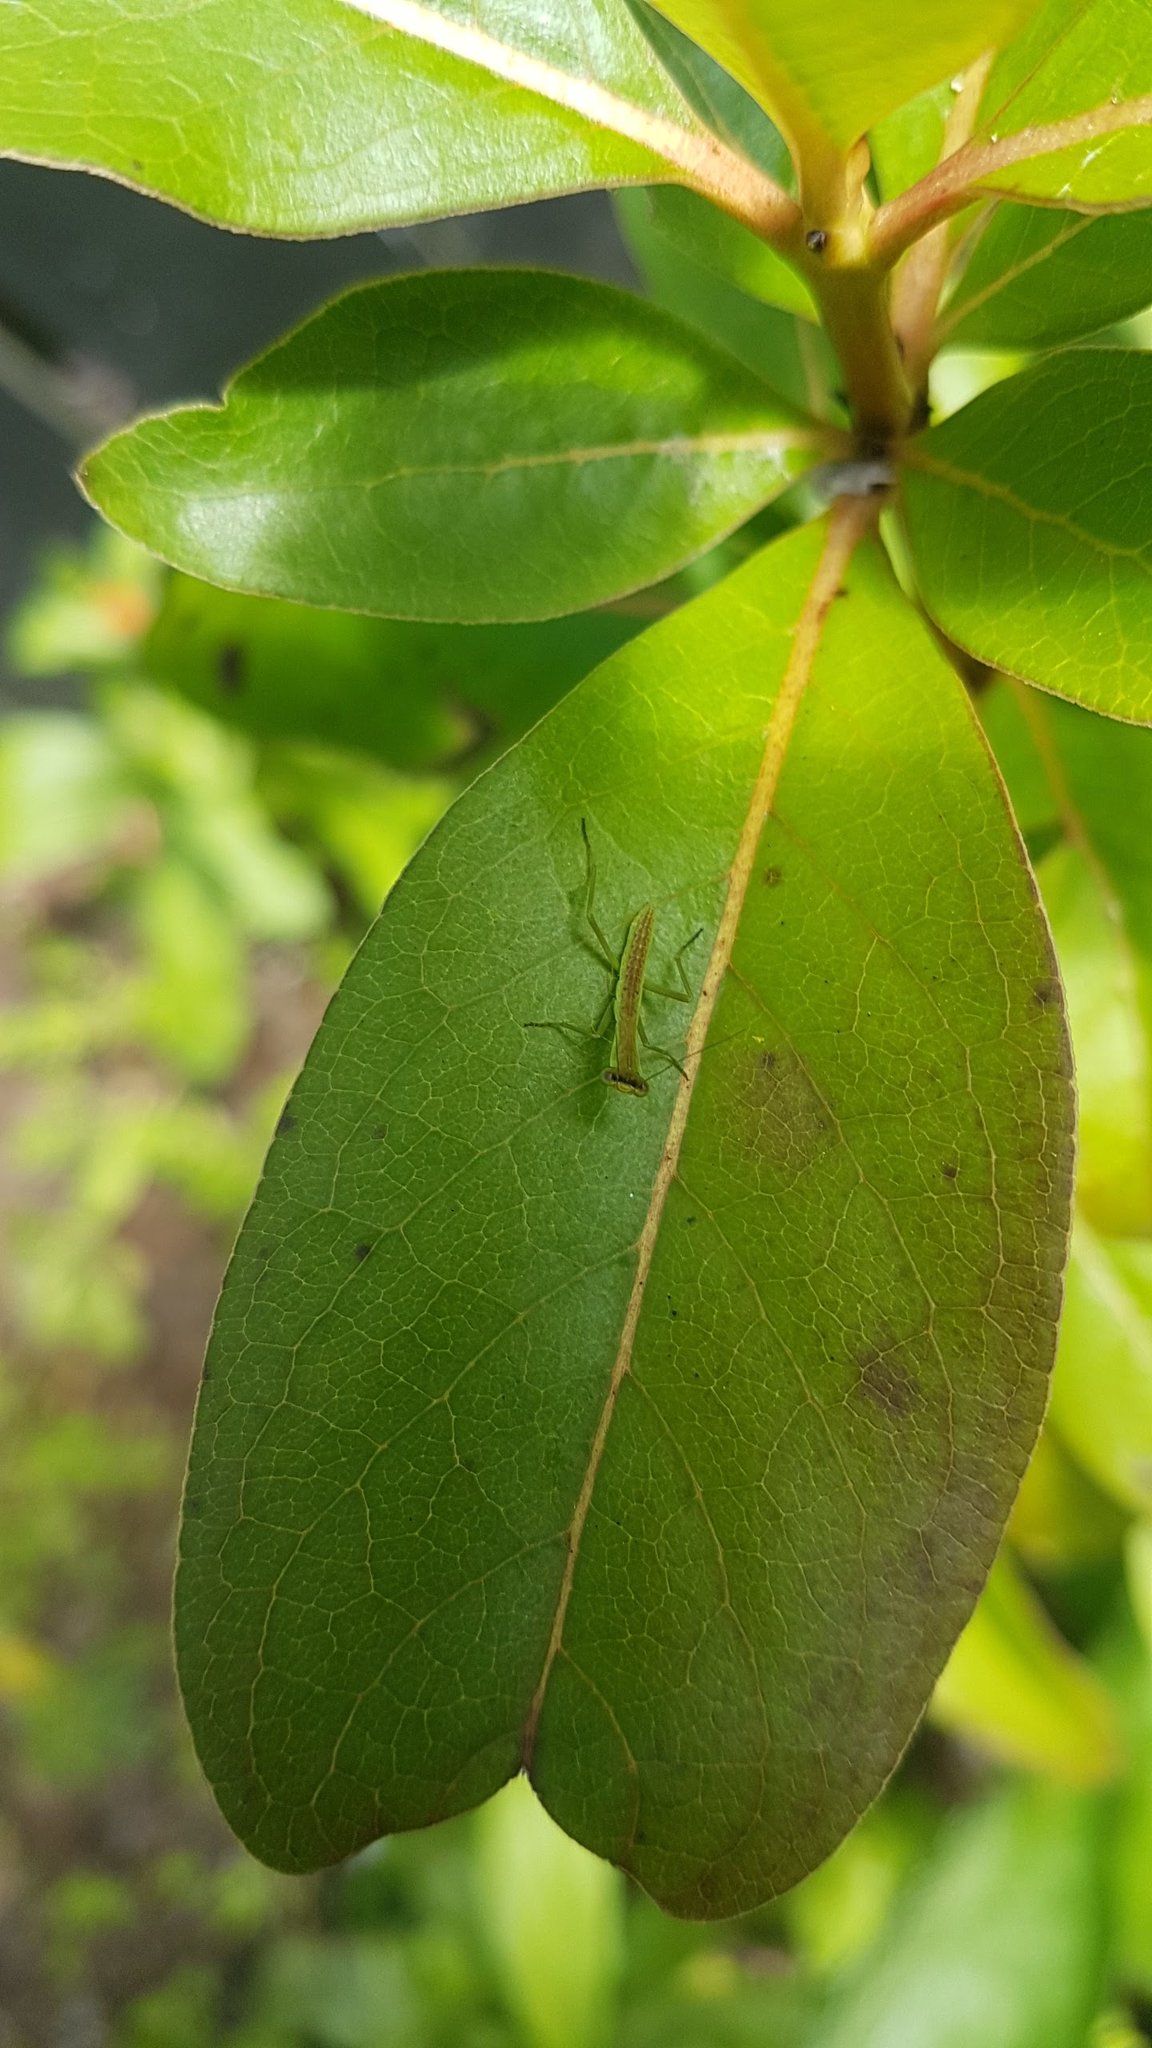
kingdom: Animalia
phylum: Arthropoda
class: Insecta
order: Mantodea
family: Mantidae
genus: Orthodera
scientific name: Orthodera novaezealandiae
